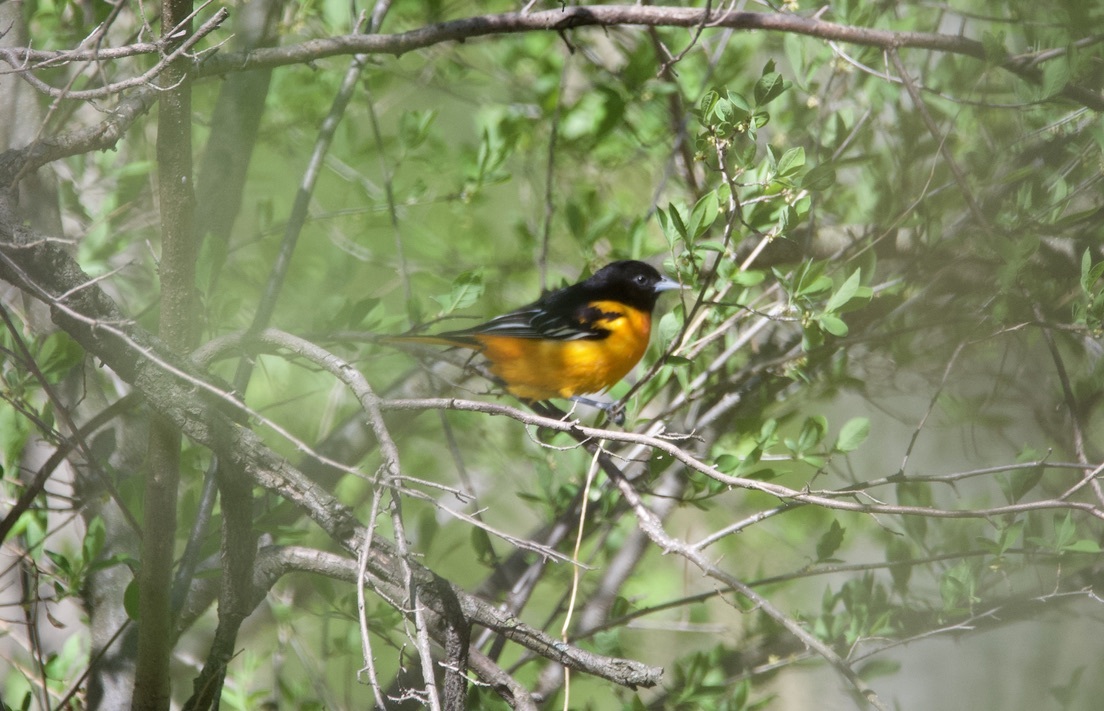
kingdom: Animalia
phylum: Chordata
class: Aves
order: Passeriformes
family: Icteridae
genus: Icterus
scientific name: Icterus galbula
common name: Baltimore oriole
